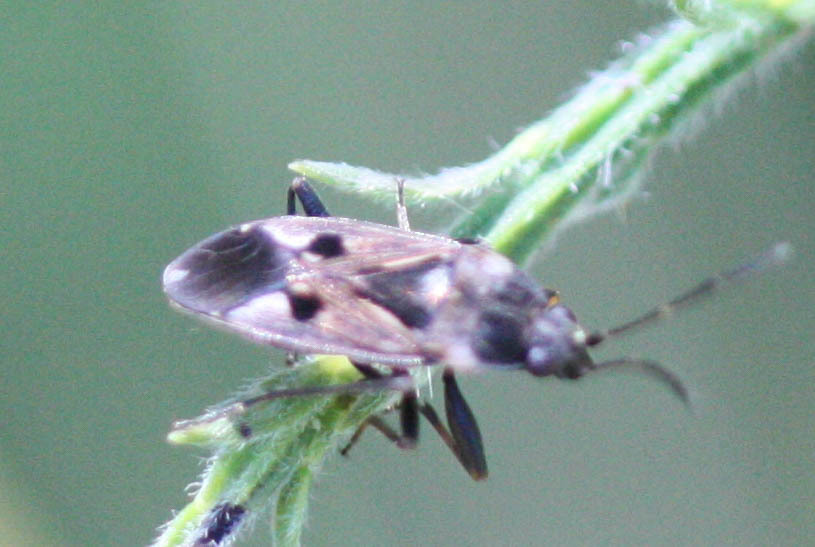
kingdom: Animalia
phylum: Arthropoda
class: Insecta
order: Hemiptera
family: Rhyparochromidae
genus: Rhyparochromus
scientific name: Rhyparochromus vulgaris
